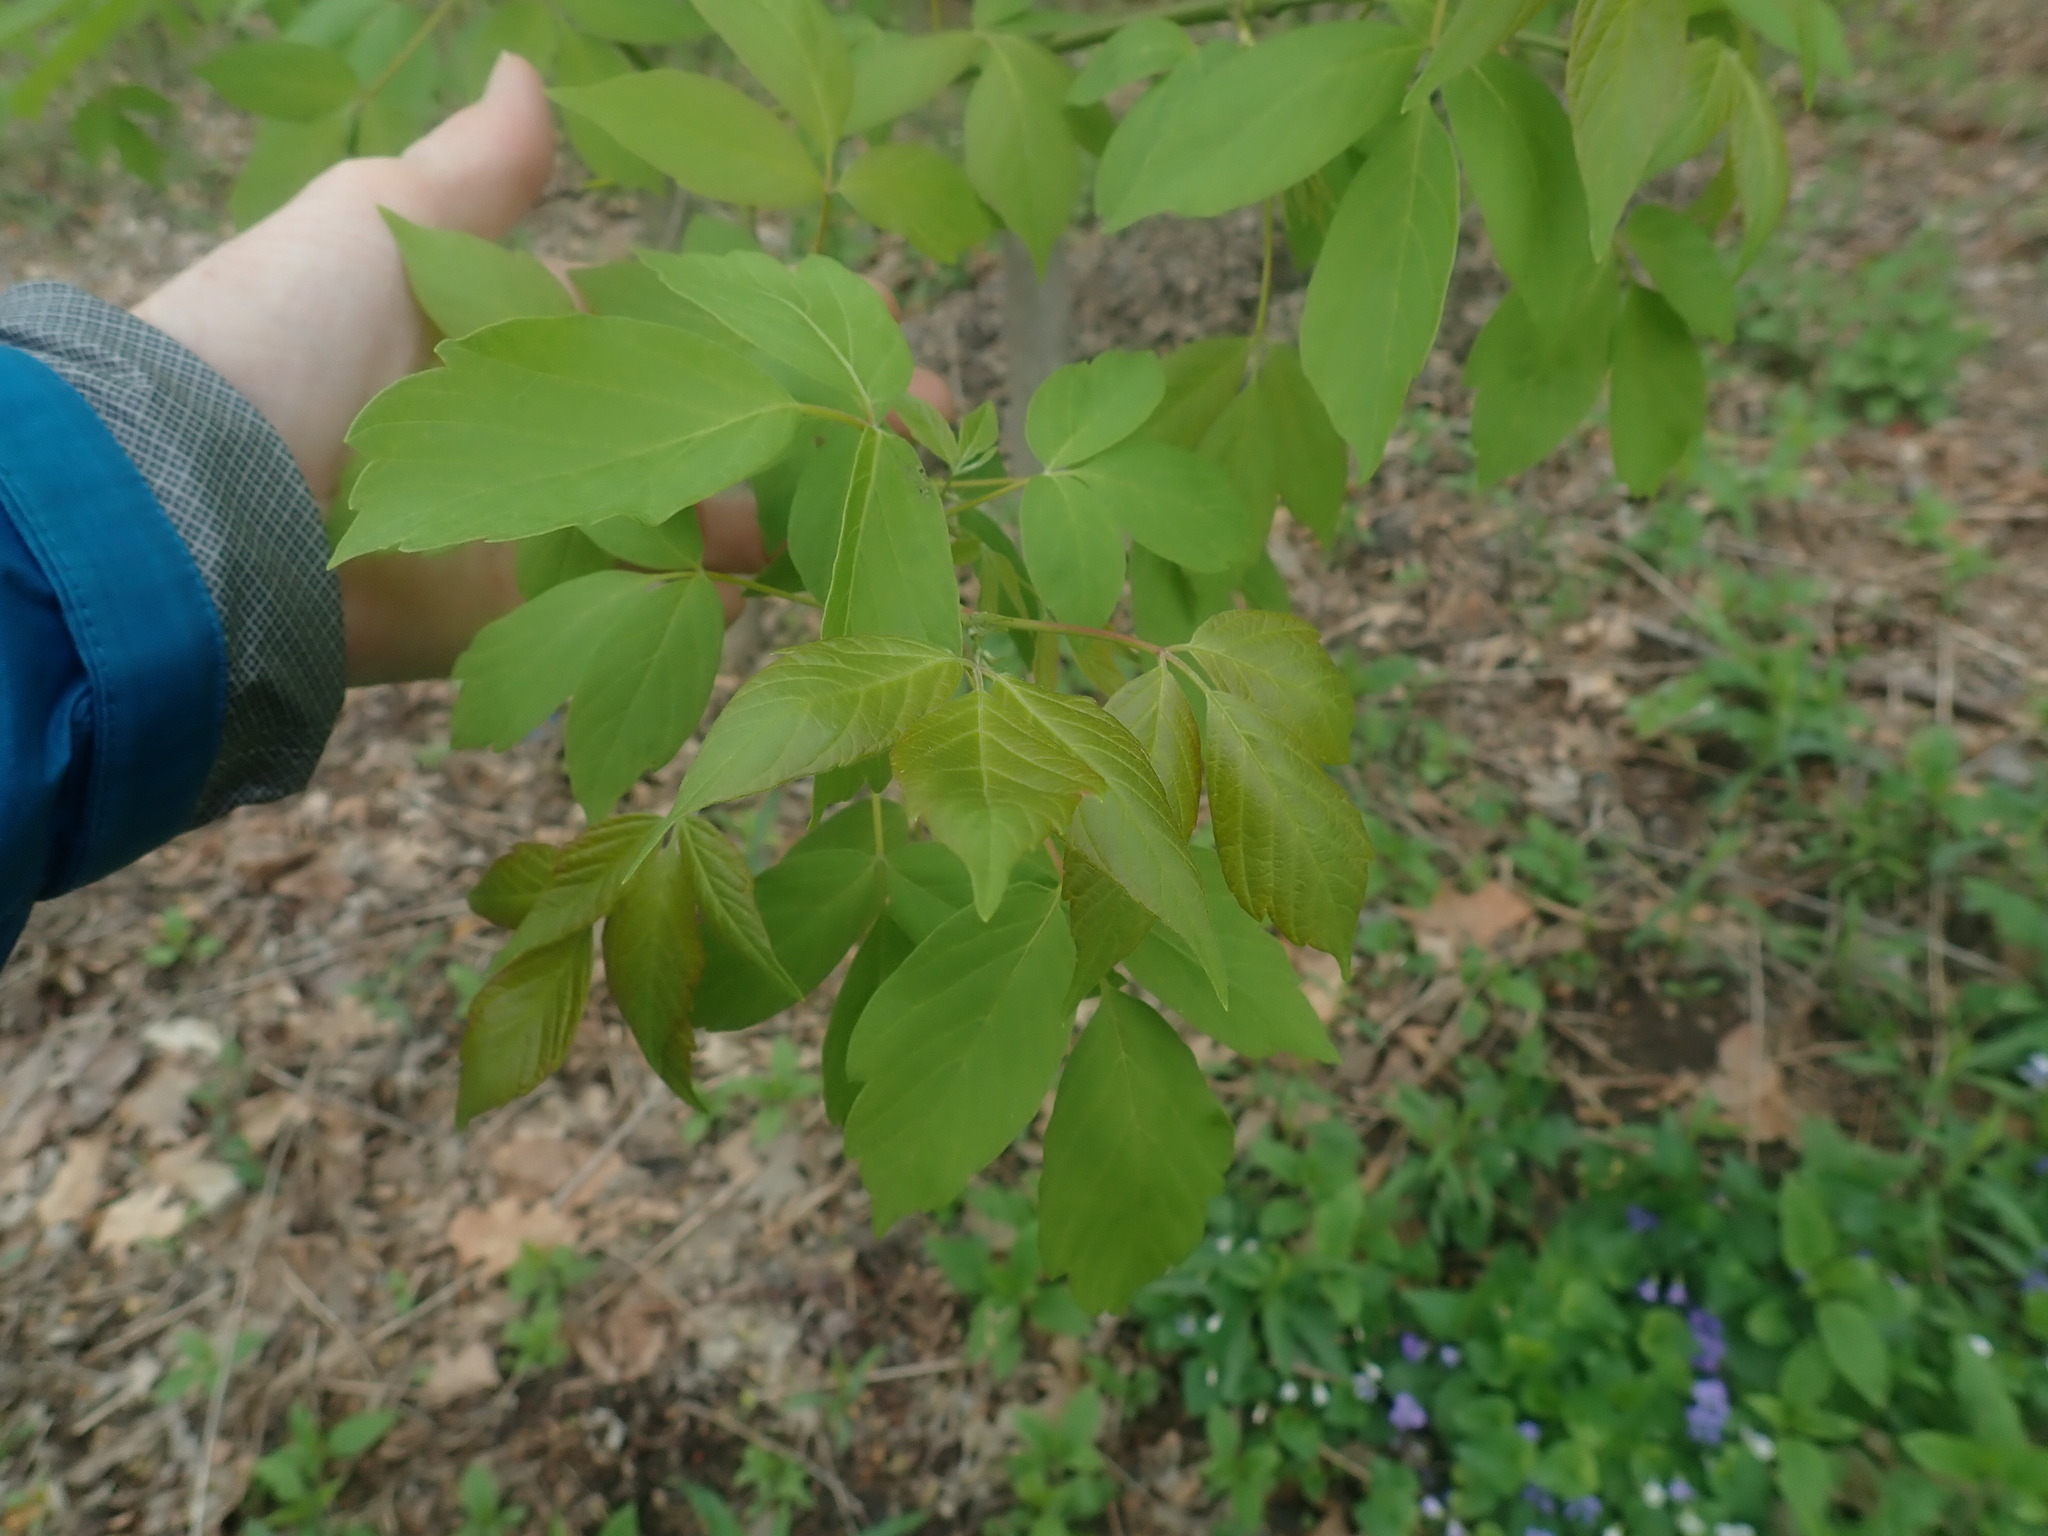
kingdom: Plantae
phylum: Tracheophyta
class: Magnoliopsida
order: Sapindales
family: Sapindaceae
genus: Acer
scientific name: Acer negundo
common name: Ashleaf maple
